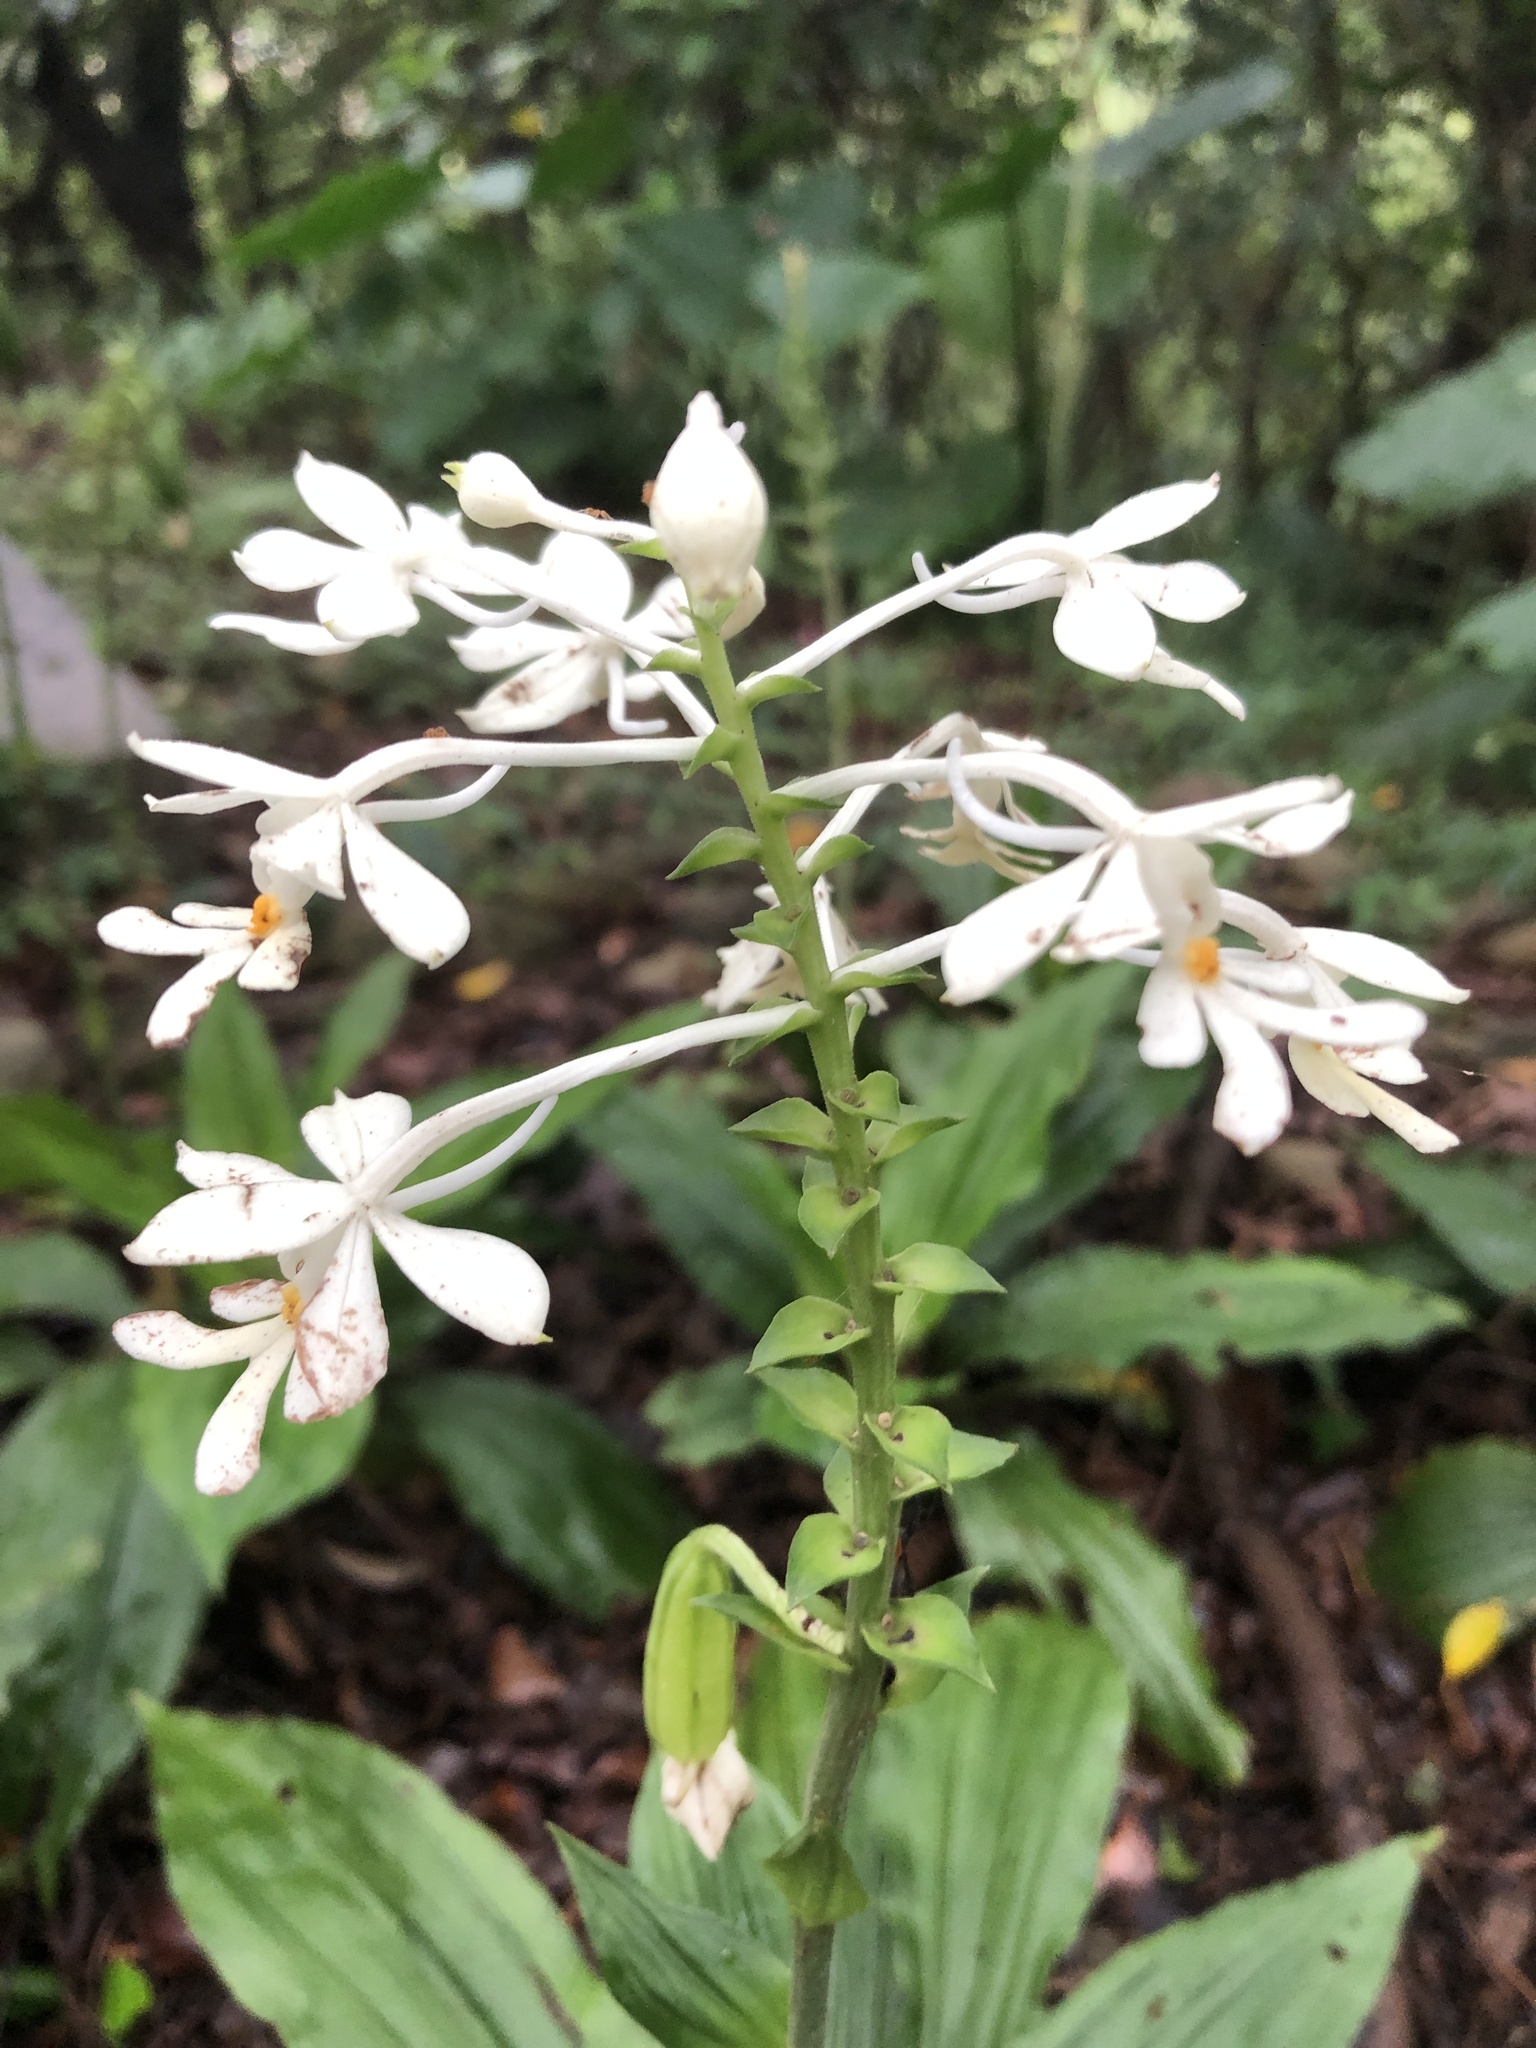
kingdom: Plantae
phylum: Tracheophyta
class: Liliopsida
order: Asparagales
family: Orchidaceae
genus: Calanthe
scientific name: Calanthe triplicata
